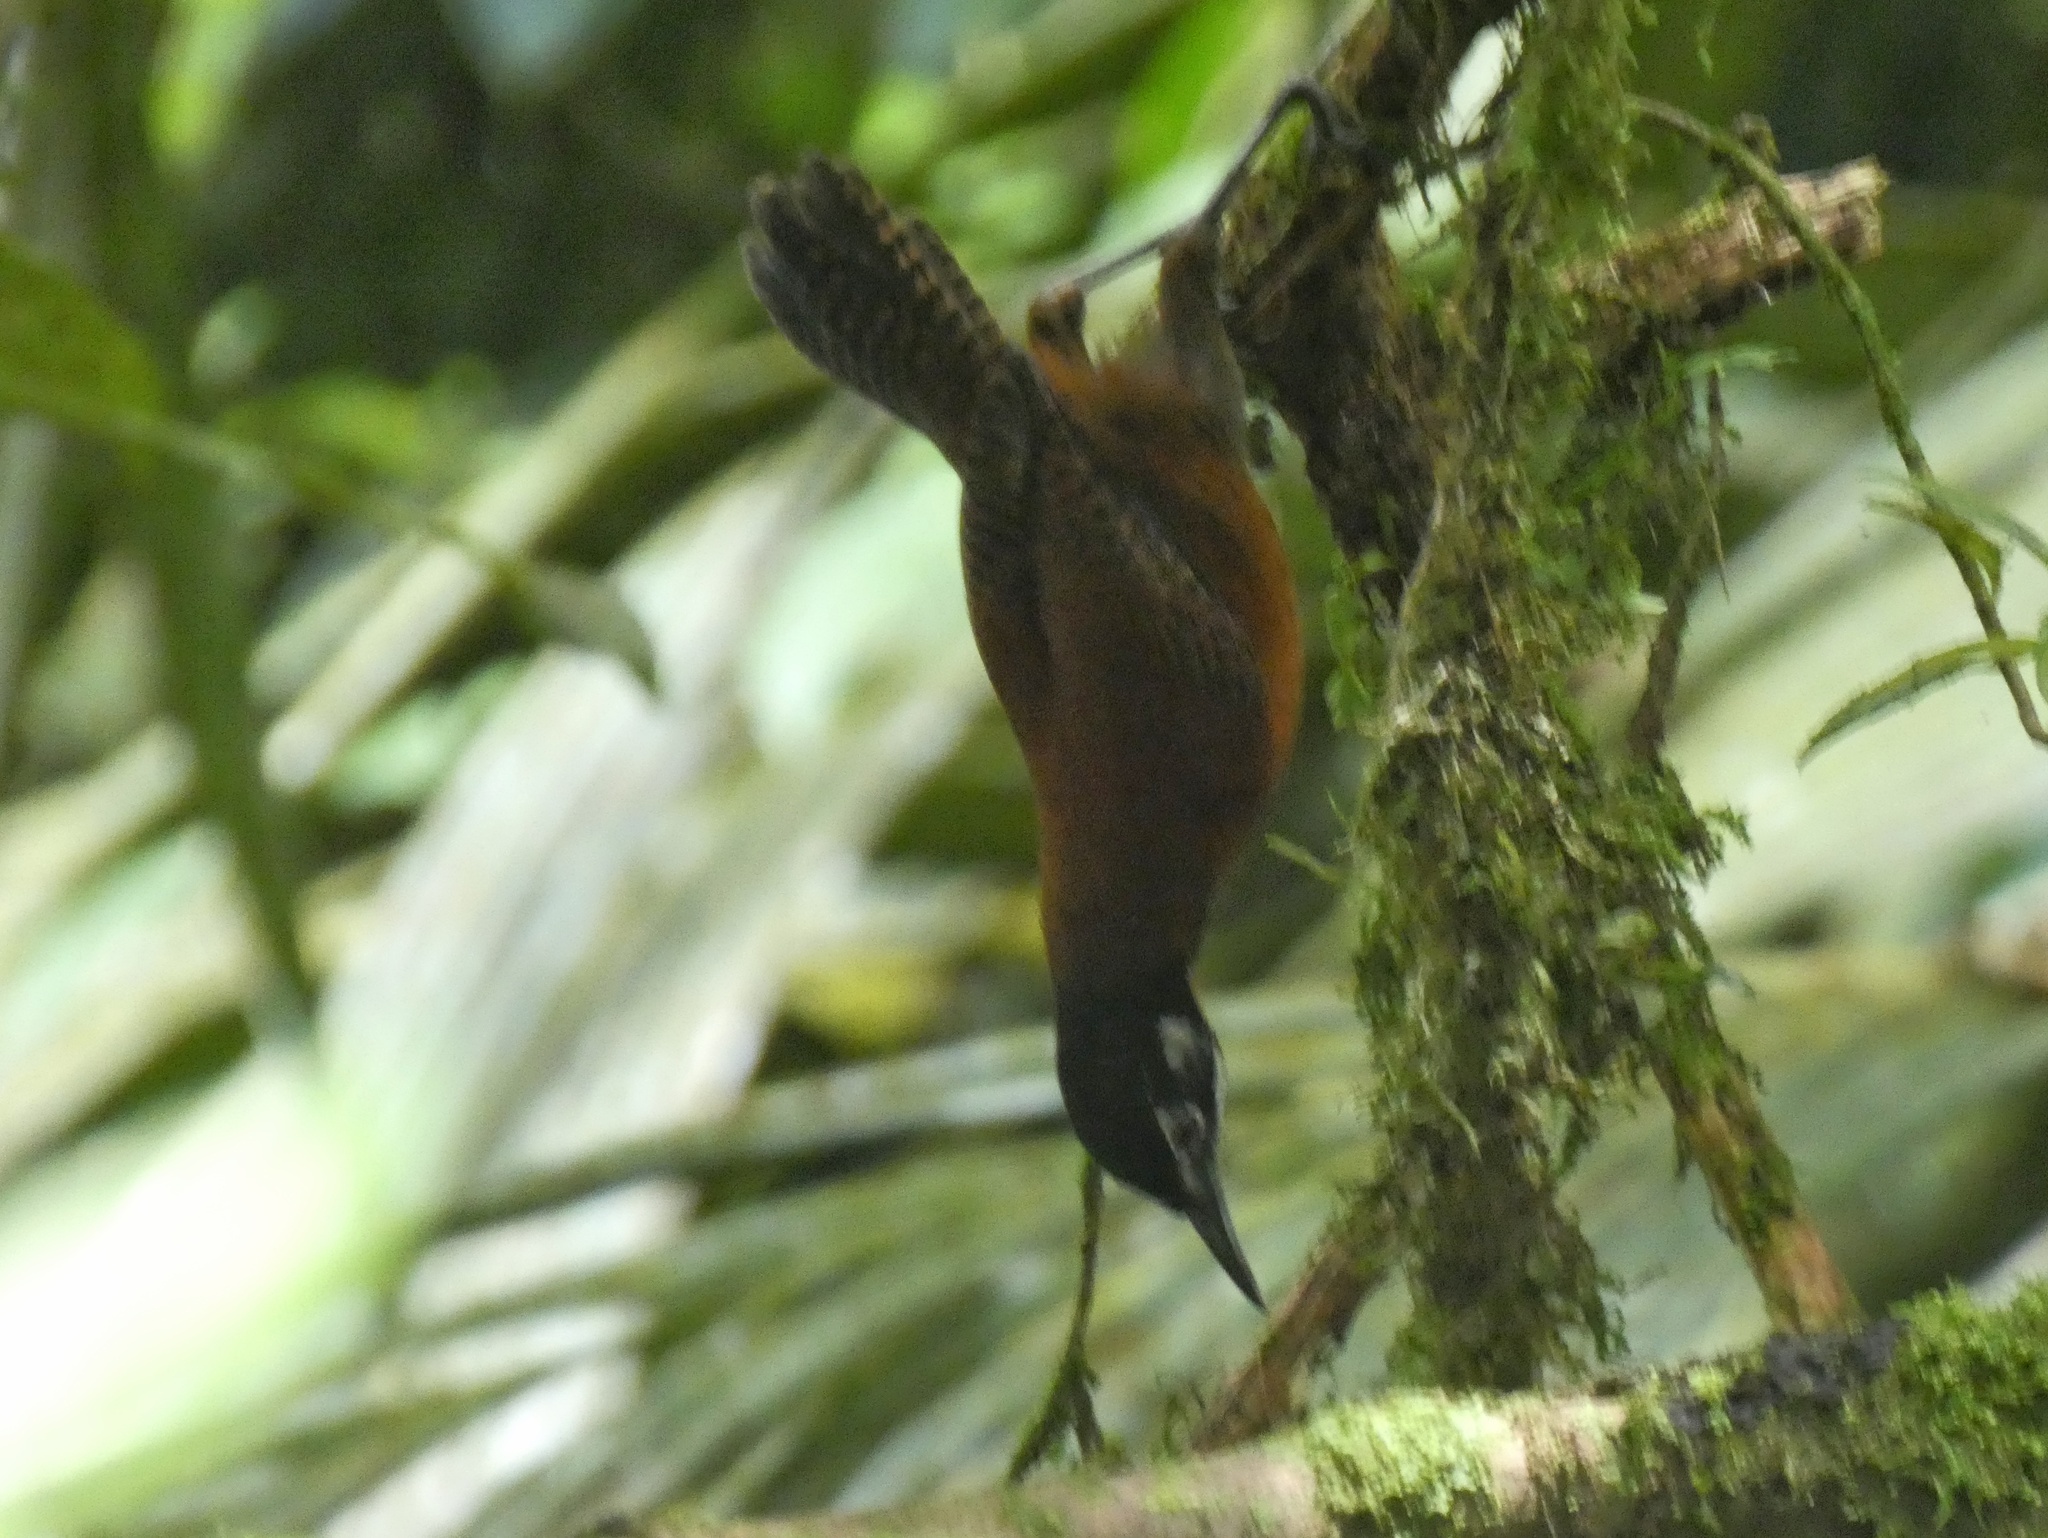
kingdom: Animalia
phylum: Chordata
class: Aves
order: Passeriformes
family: Troglodytidae
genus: Cantorchilus
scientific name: Cantorchilus nigricapillus
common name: Bay wren
